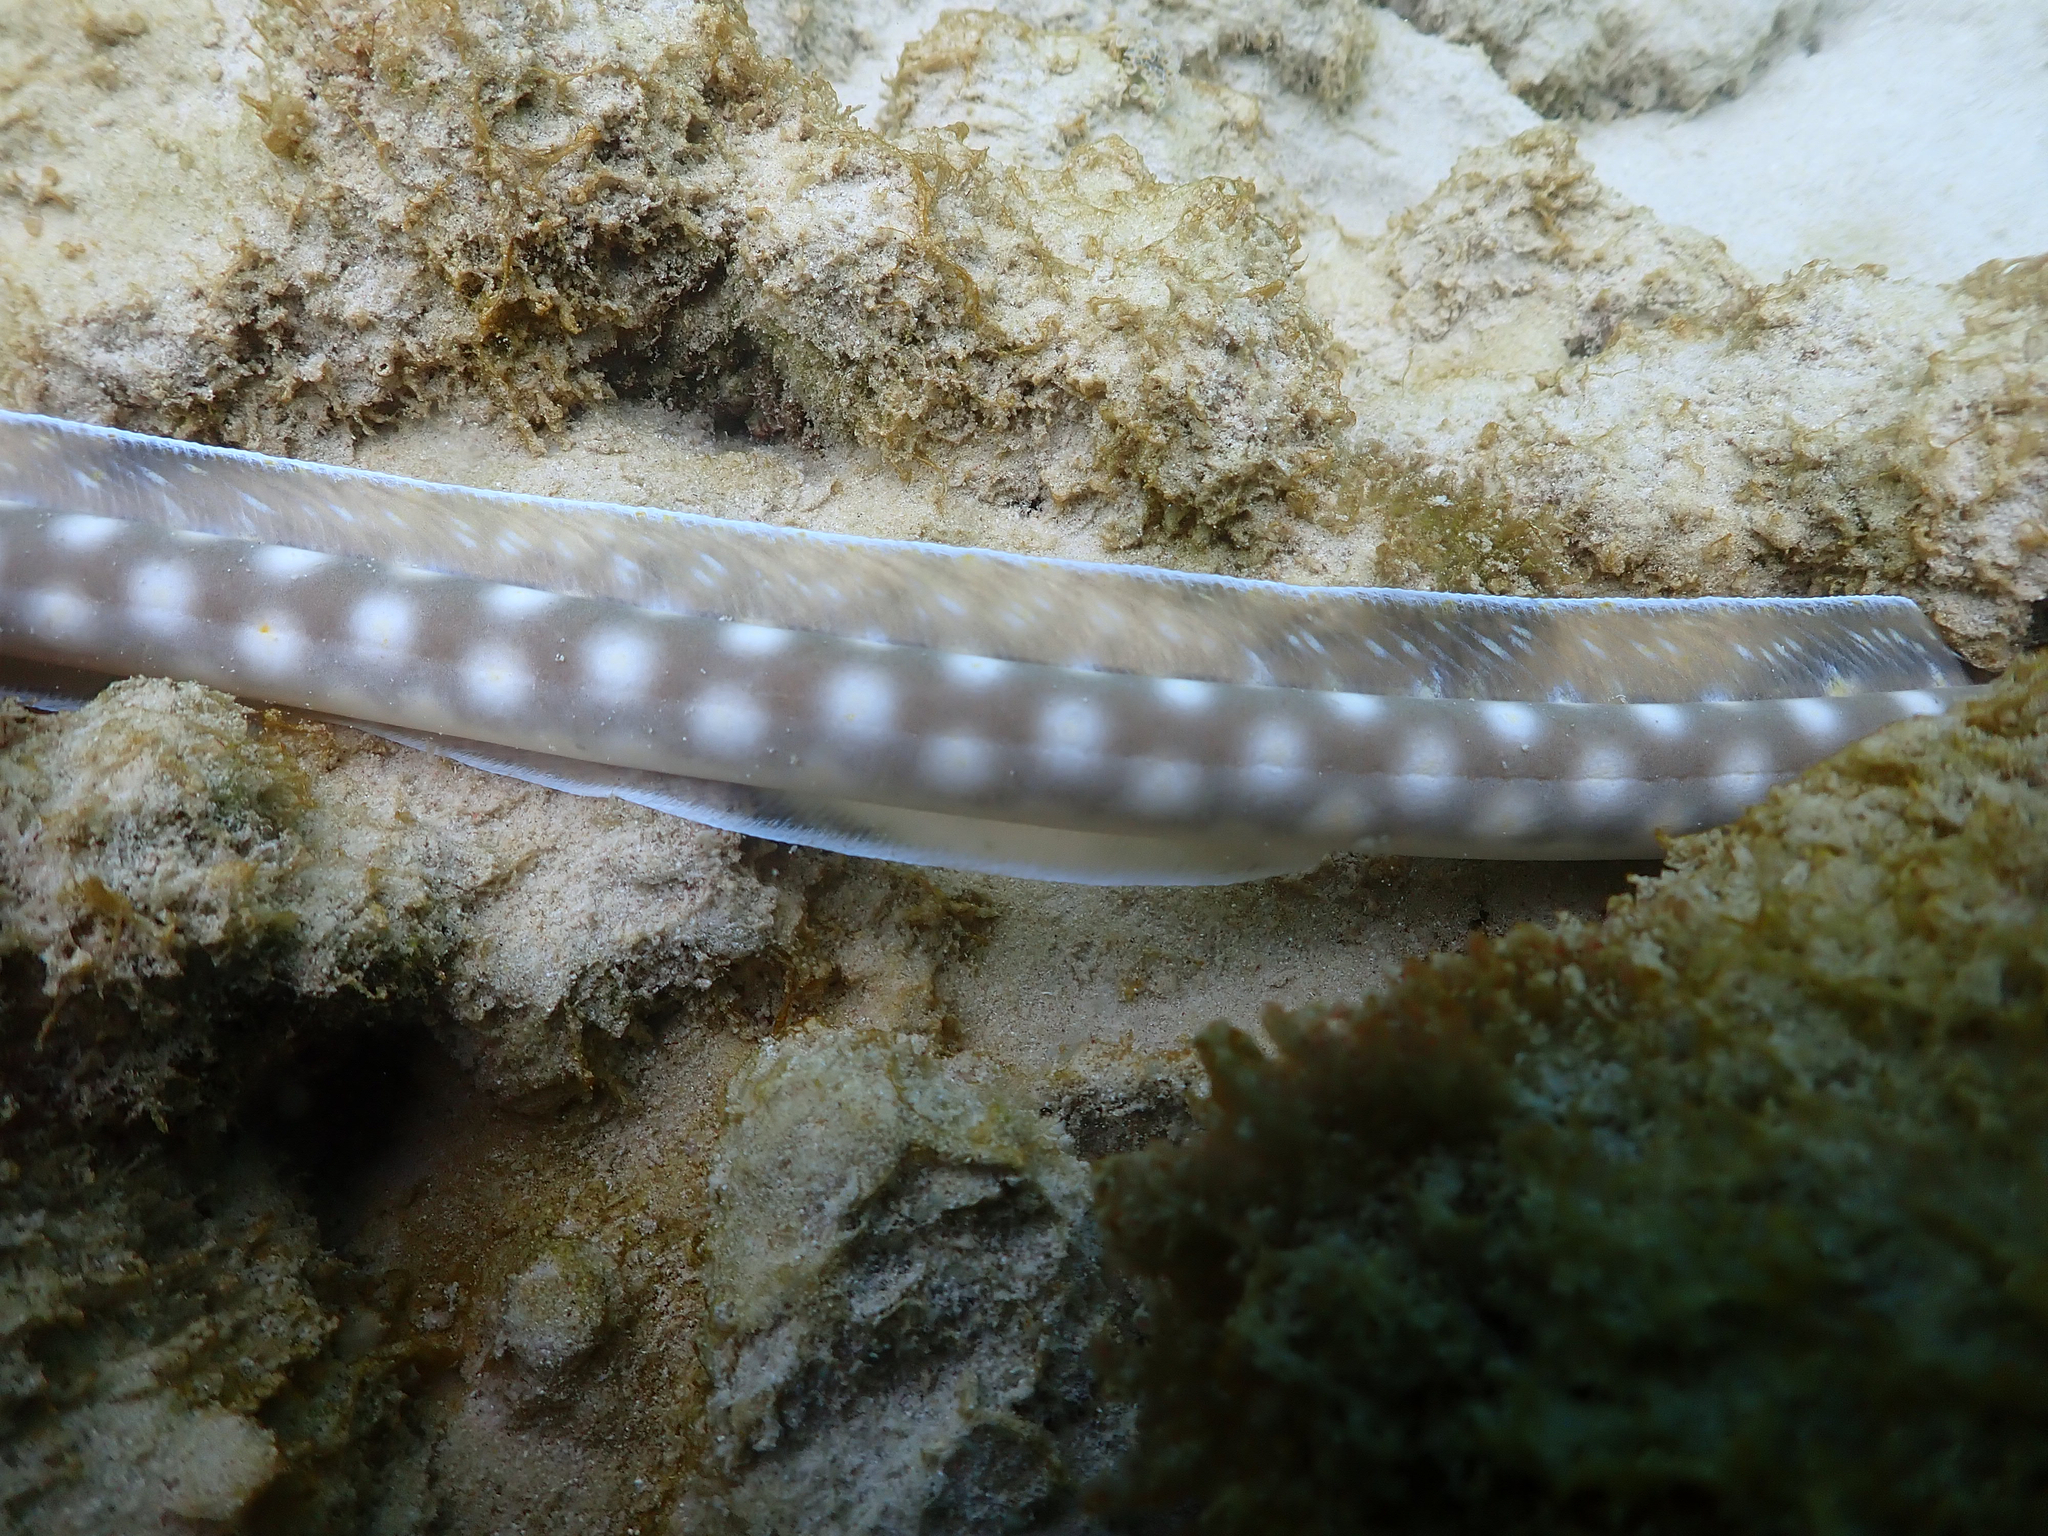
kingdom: Animalia
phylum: Chordata
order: Anguilliformes
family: Ophichthidae
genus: Myrichthys
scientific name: Myrichthys breviceps
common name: Sharptail eel
